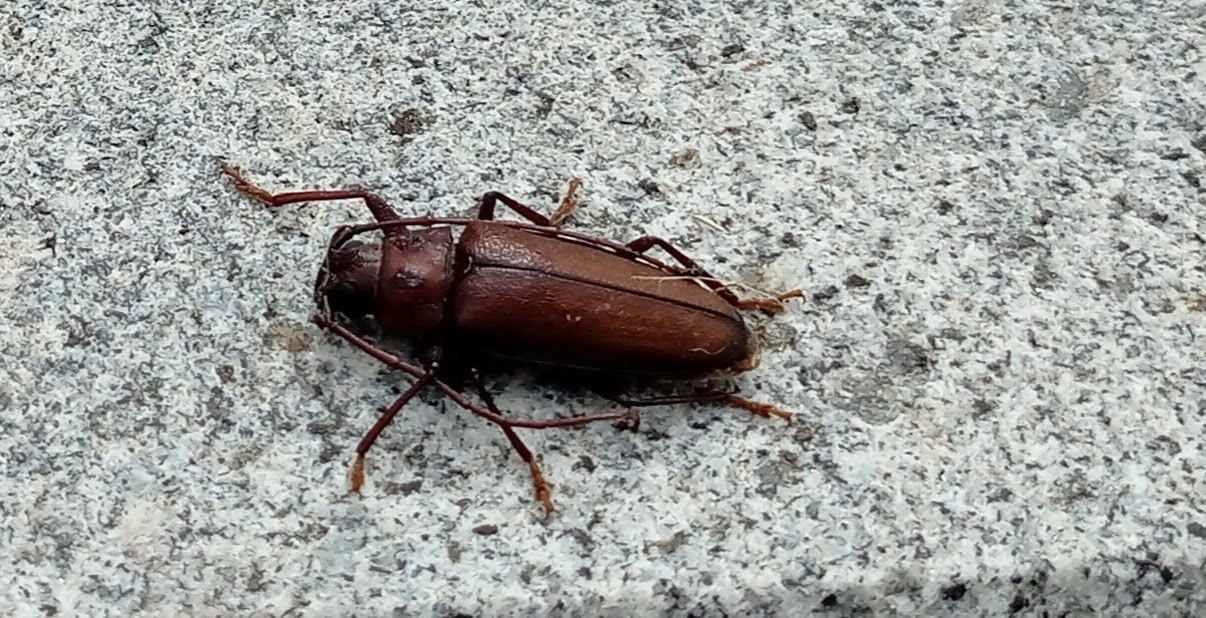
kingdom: Animalia
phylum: Arthropoda
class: Insecta
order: Coleoptera
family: Cerambycidae
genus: Ergates
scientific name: Ergates faber
